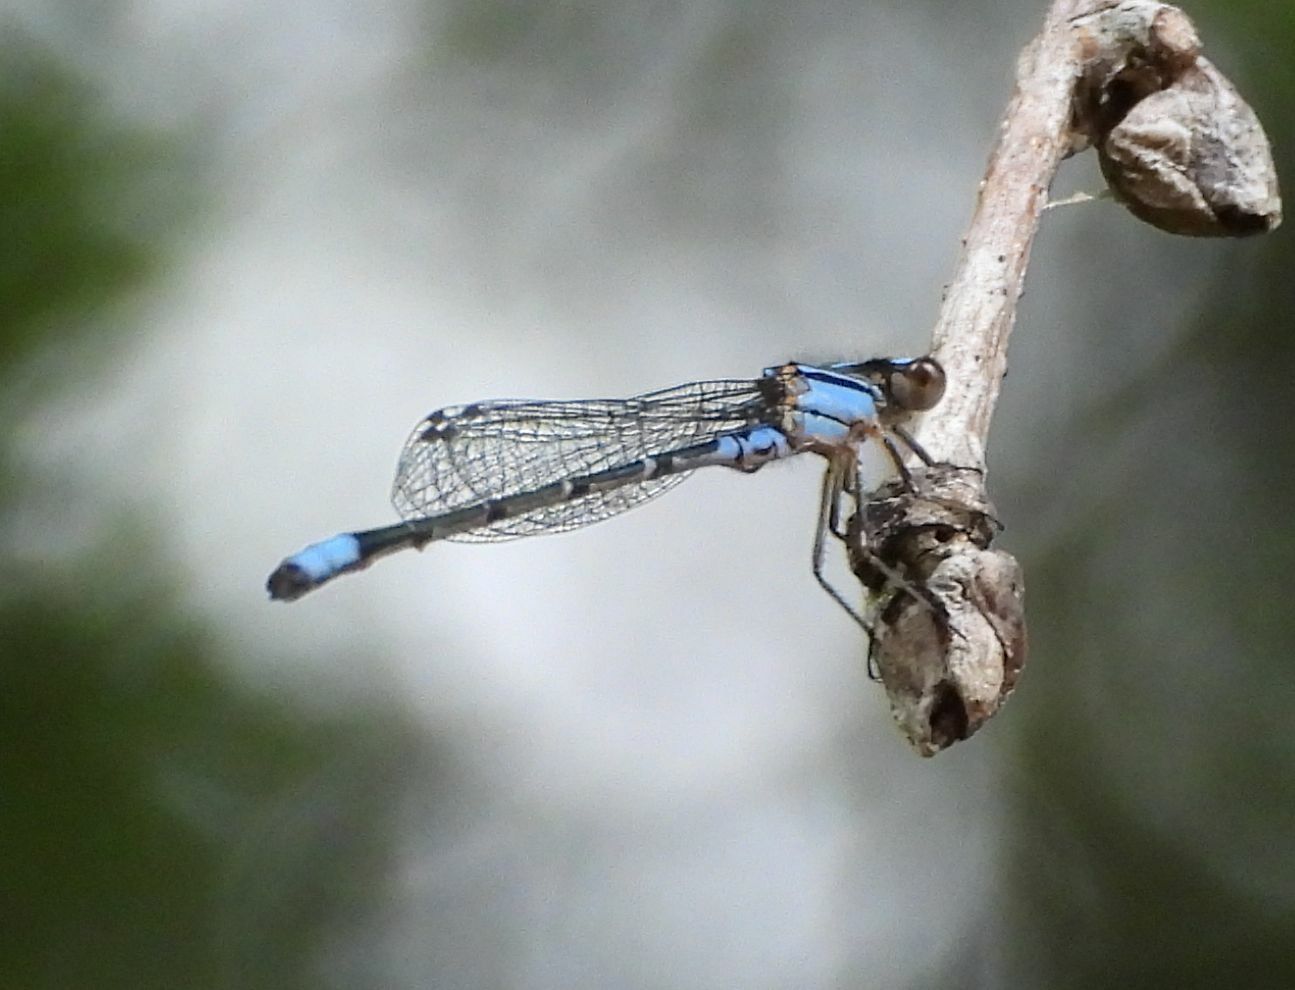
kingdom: Animalia
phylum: Arthropoda
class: Insecta
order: Odonata
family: Coenagrionidae
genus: Enallagma
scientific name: Enallagma geminatum
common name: Skimming bluet
